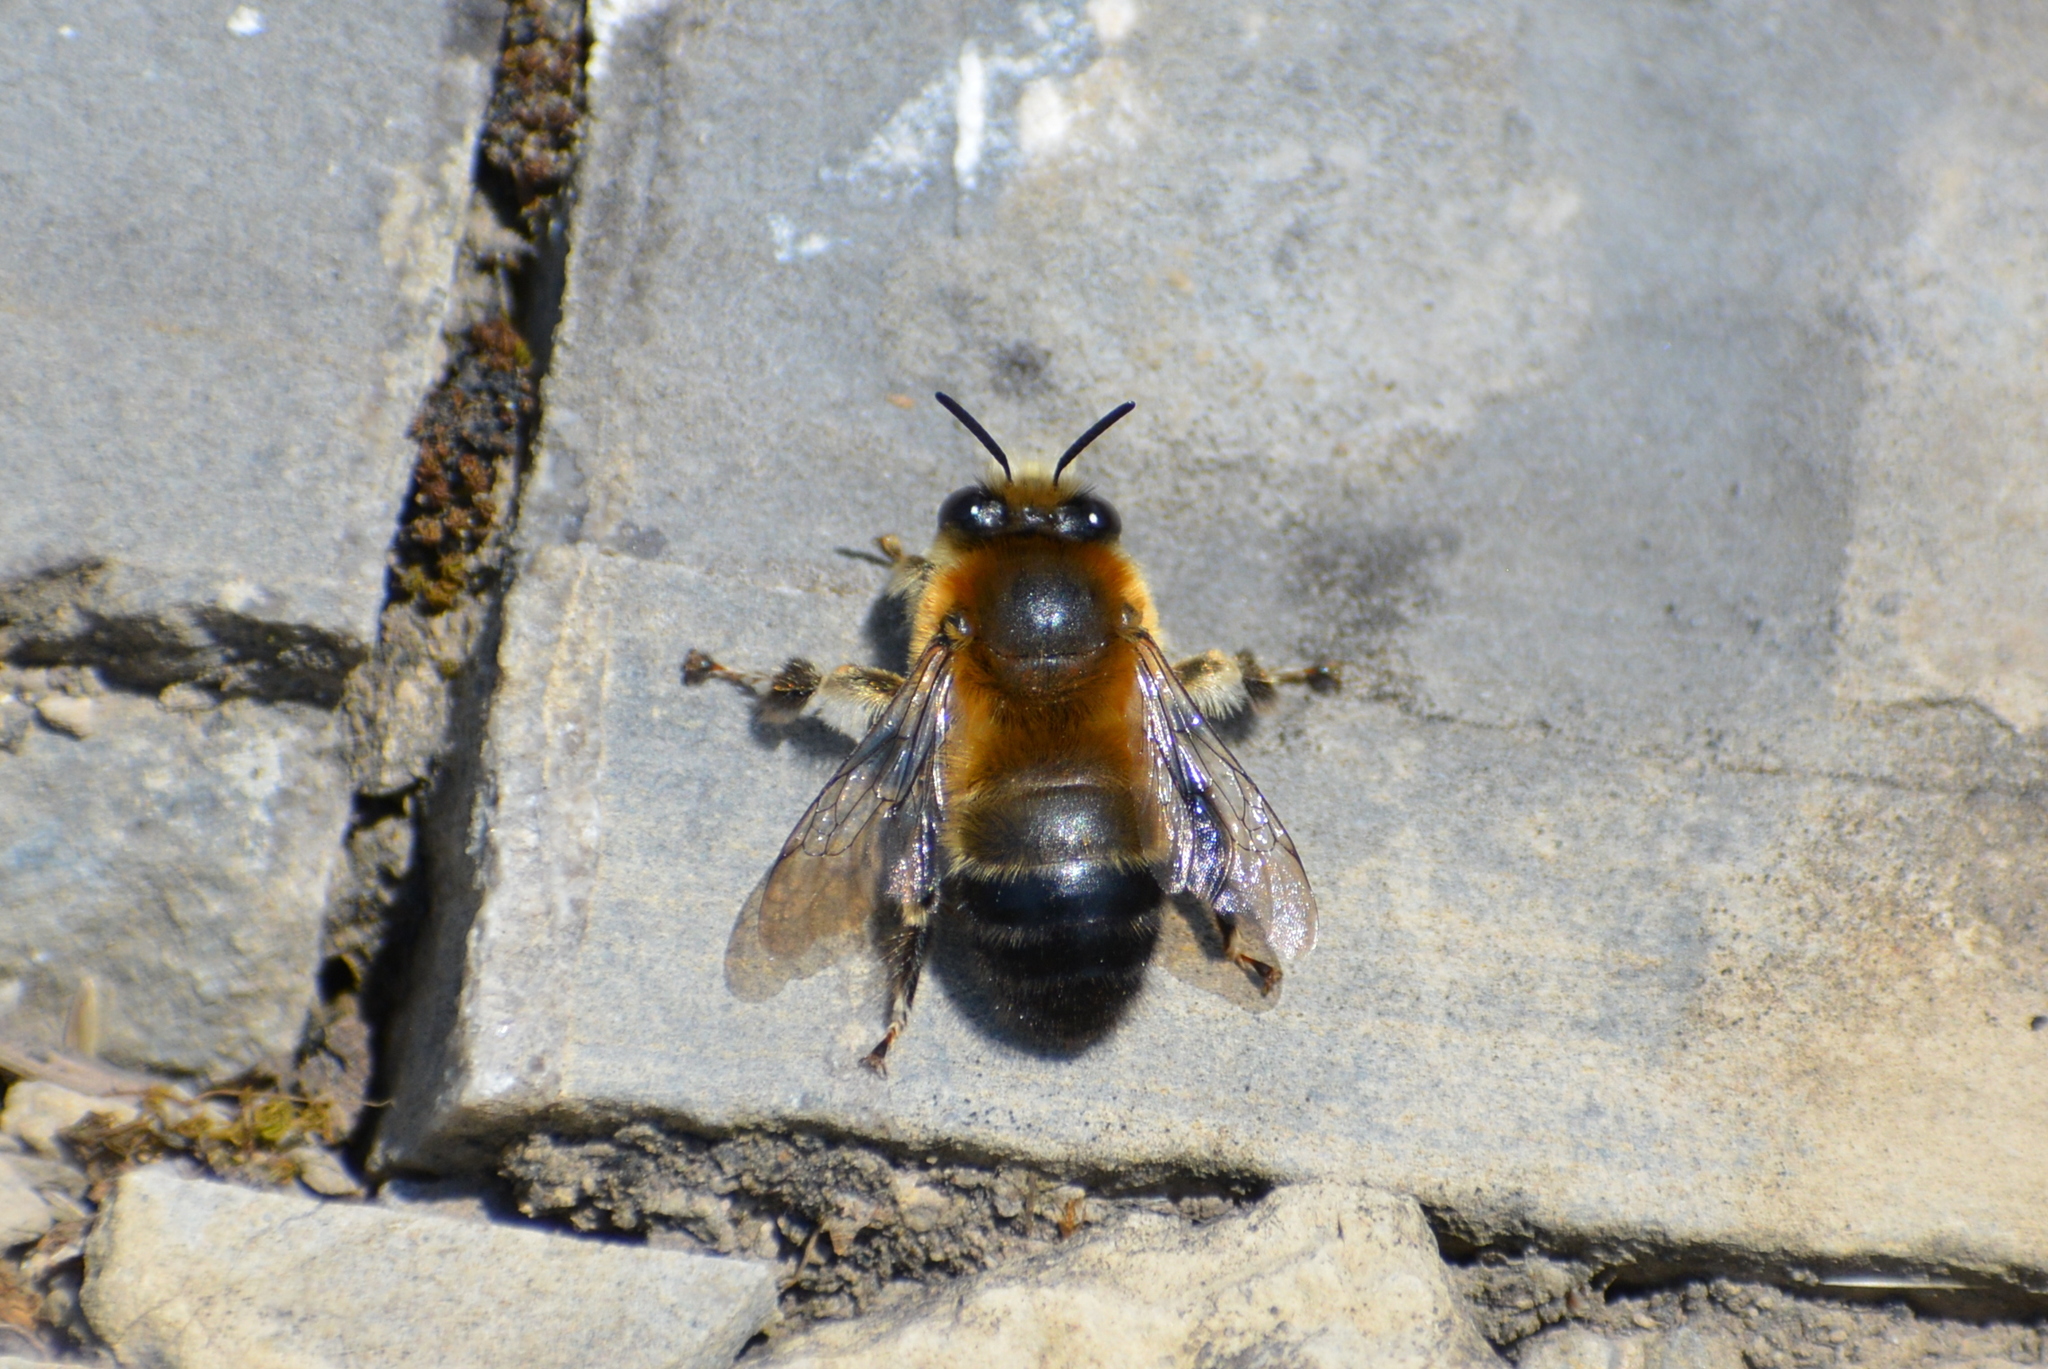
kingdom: Animalia
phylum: Arthropoda
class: Insecta
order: Hymenoptera
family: Apidae
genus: Anthophora
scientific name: Anthophora retusa
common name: Potter flower bee
